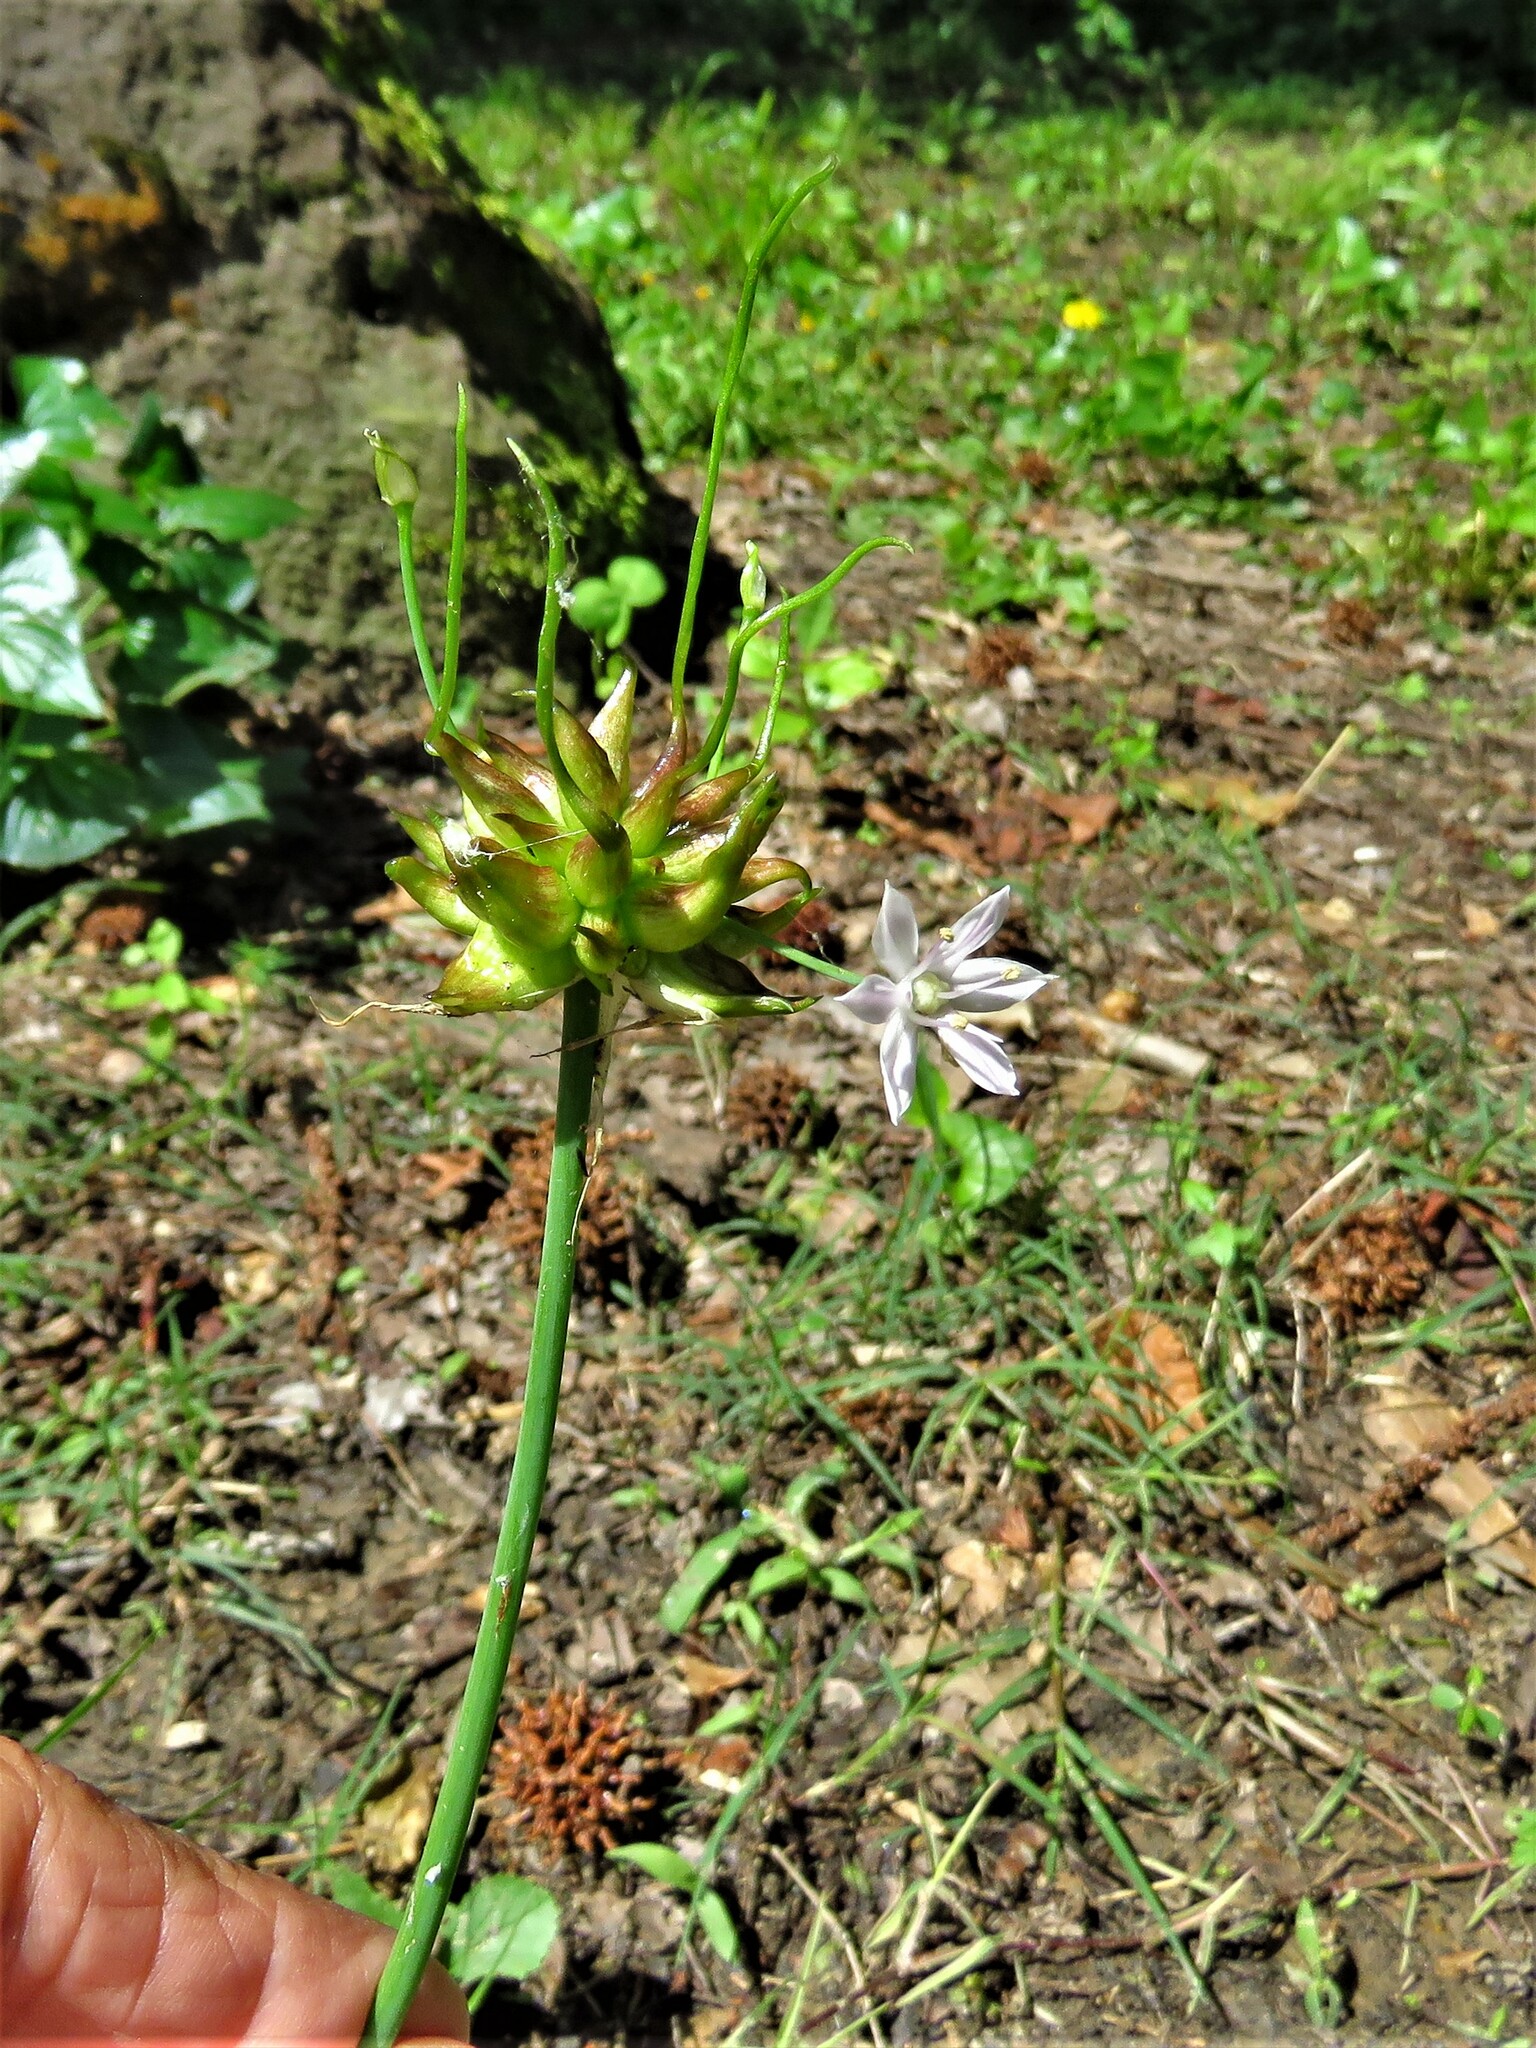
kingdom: Plantae
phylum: Tracheophyta
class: Liliopsida
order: Asparagales
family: Amaryllidaceae
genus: Allium
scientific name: Allium canadense
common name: Meadow garlic
